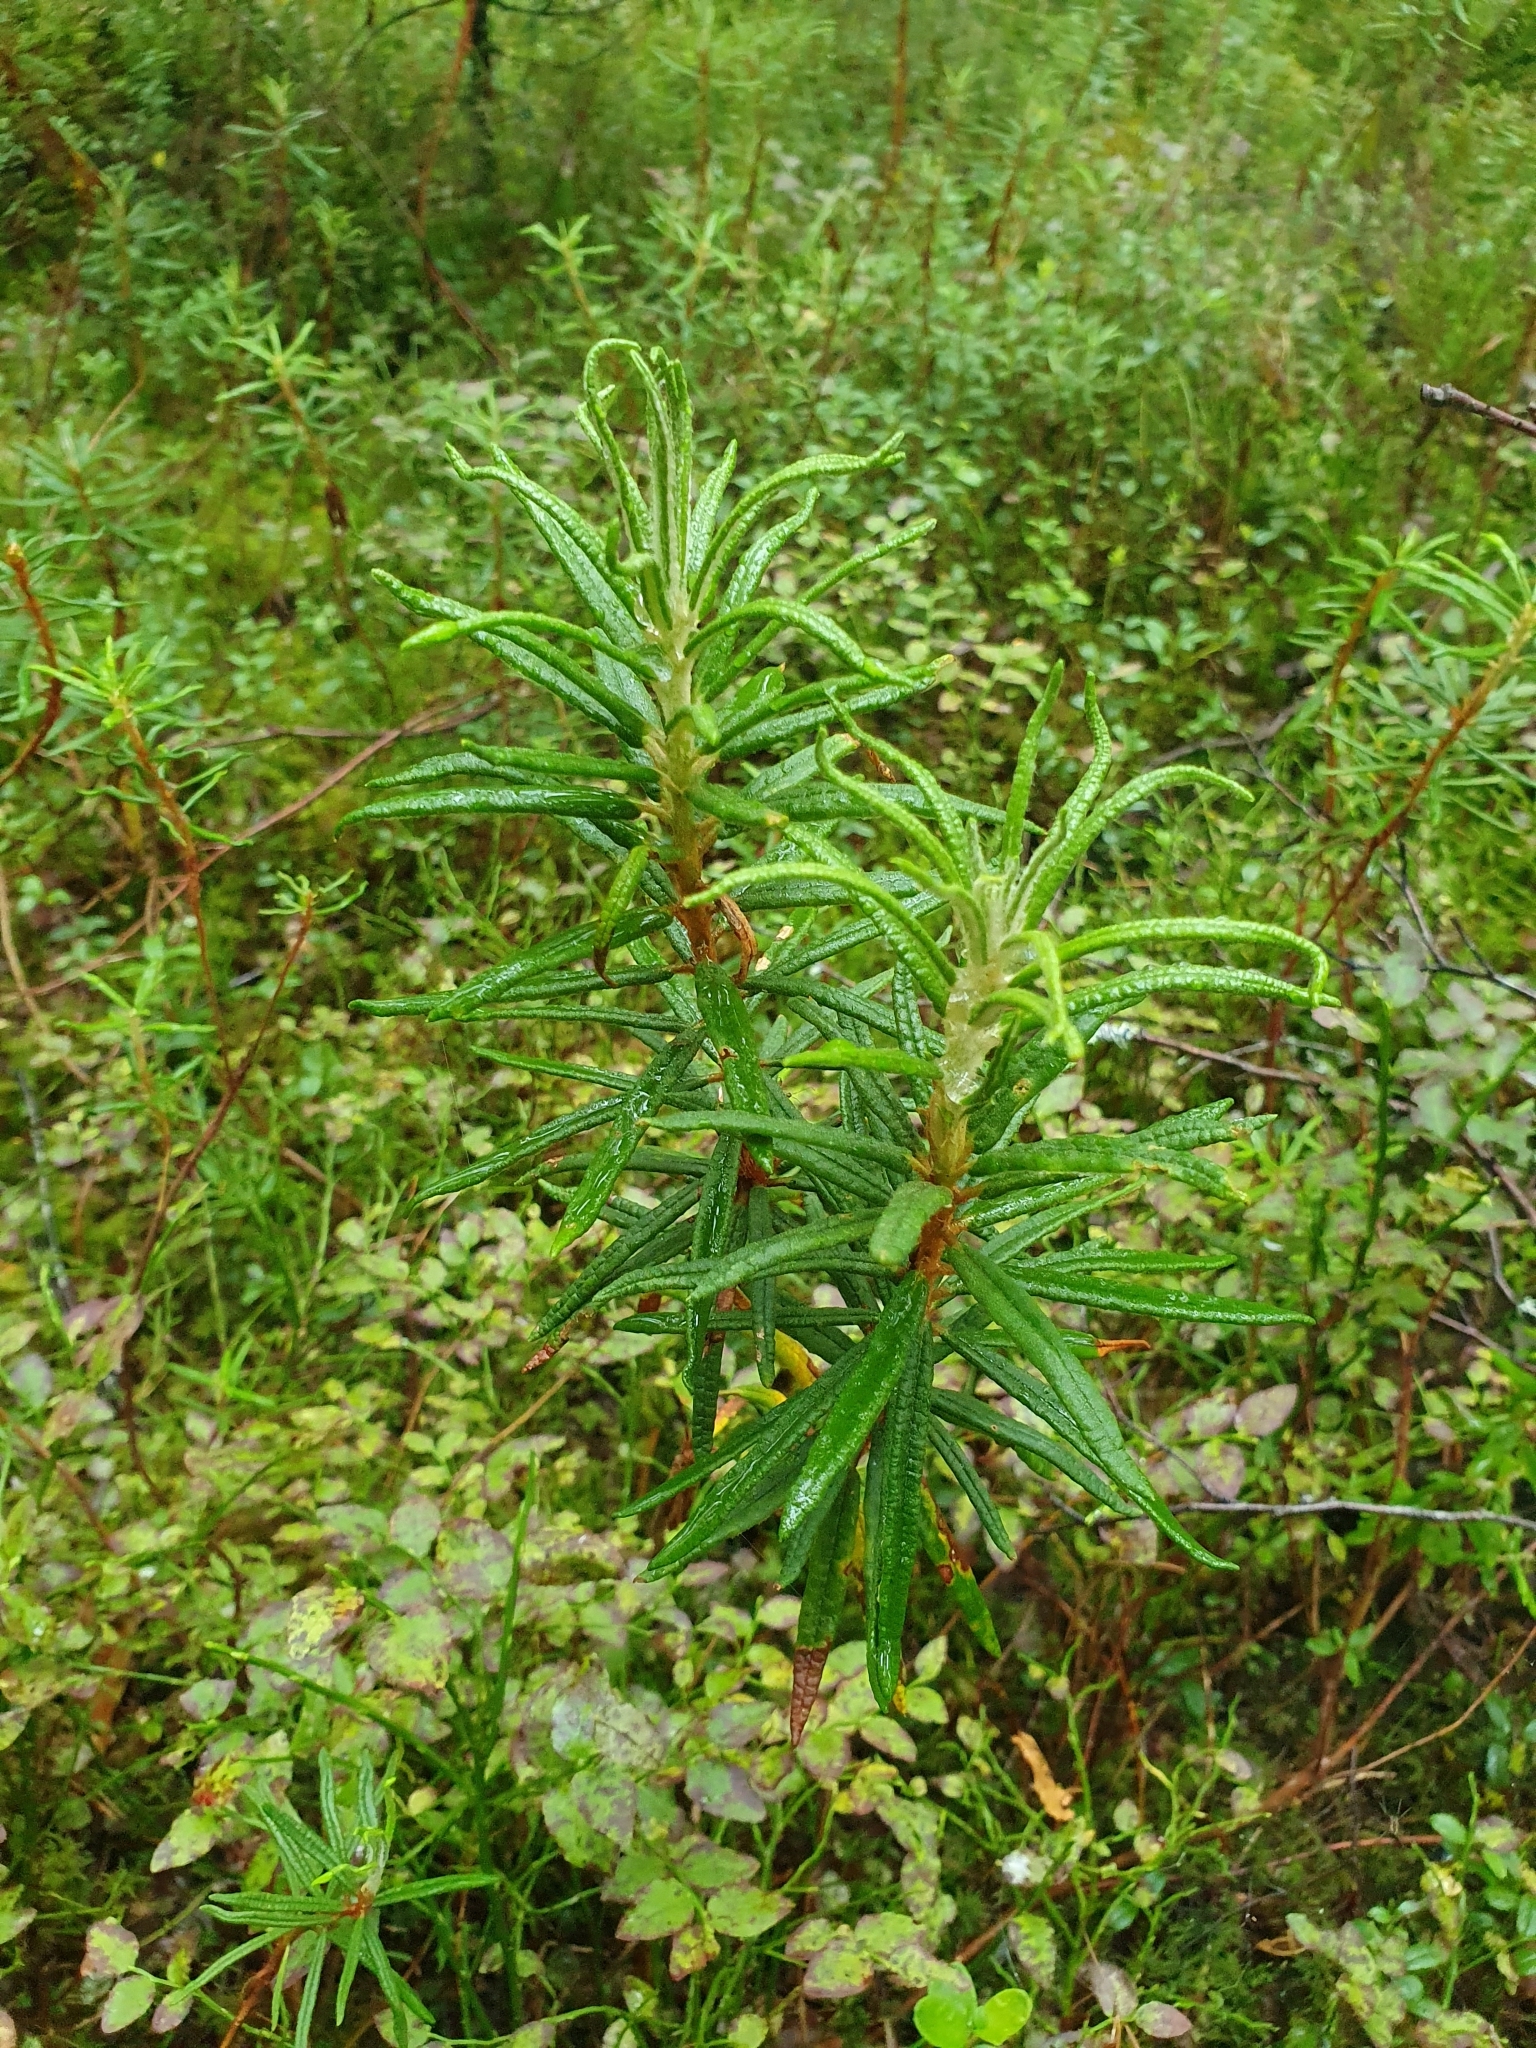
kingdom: Plantae
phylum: Tracheophyta
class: Magnoliopsida
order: Ericales
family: Ericaceae
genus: Rhododendron
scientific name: Rhododendron tomentosum
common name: Marsh labrador tea
